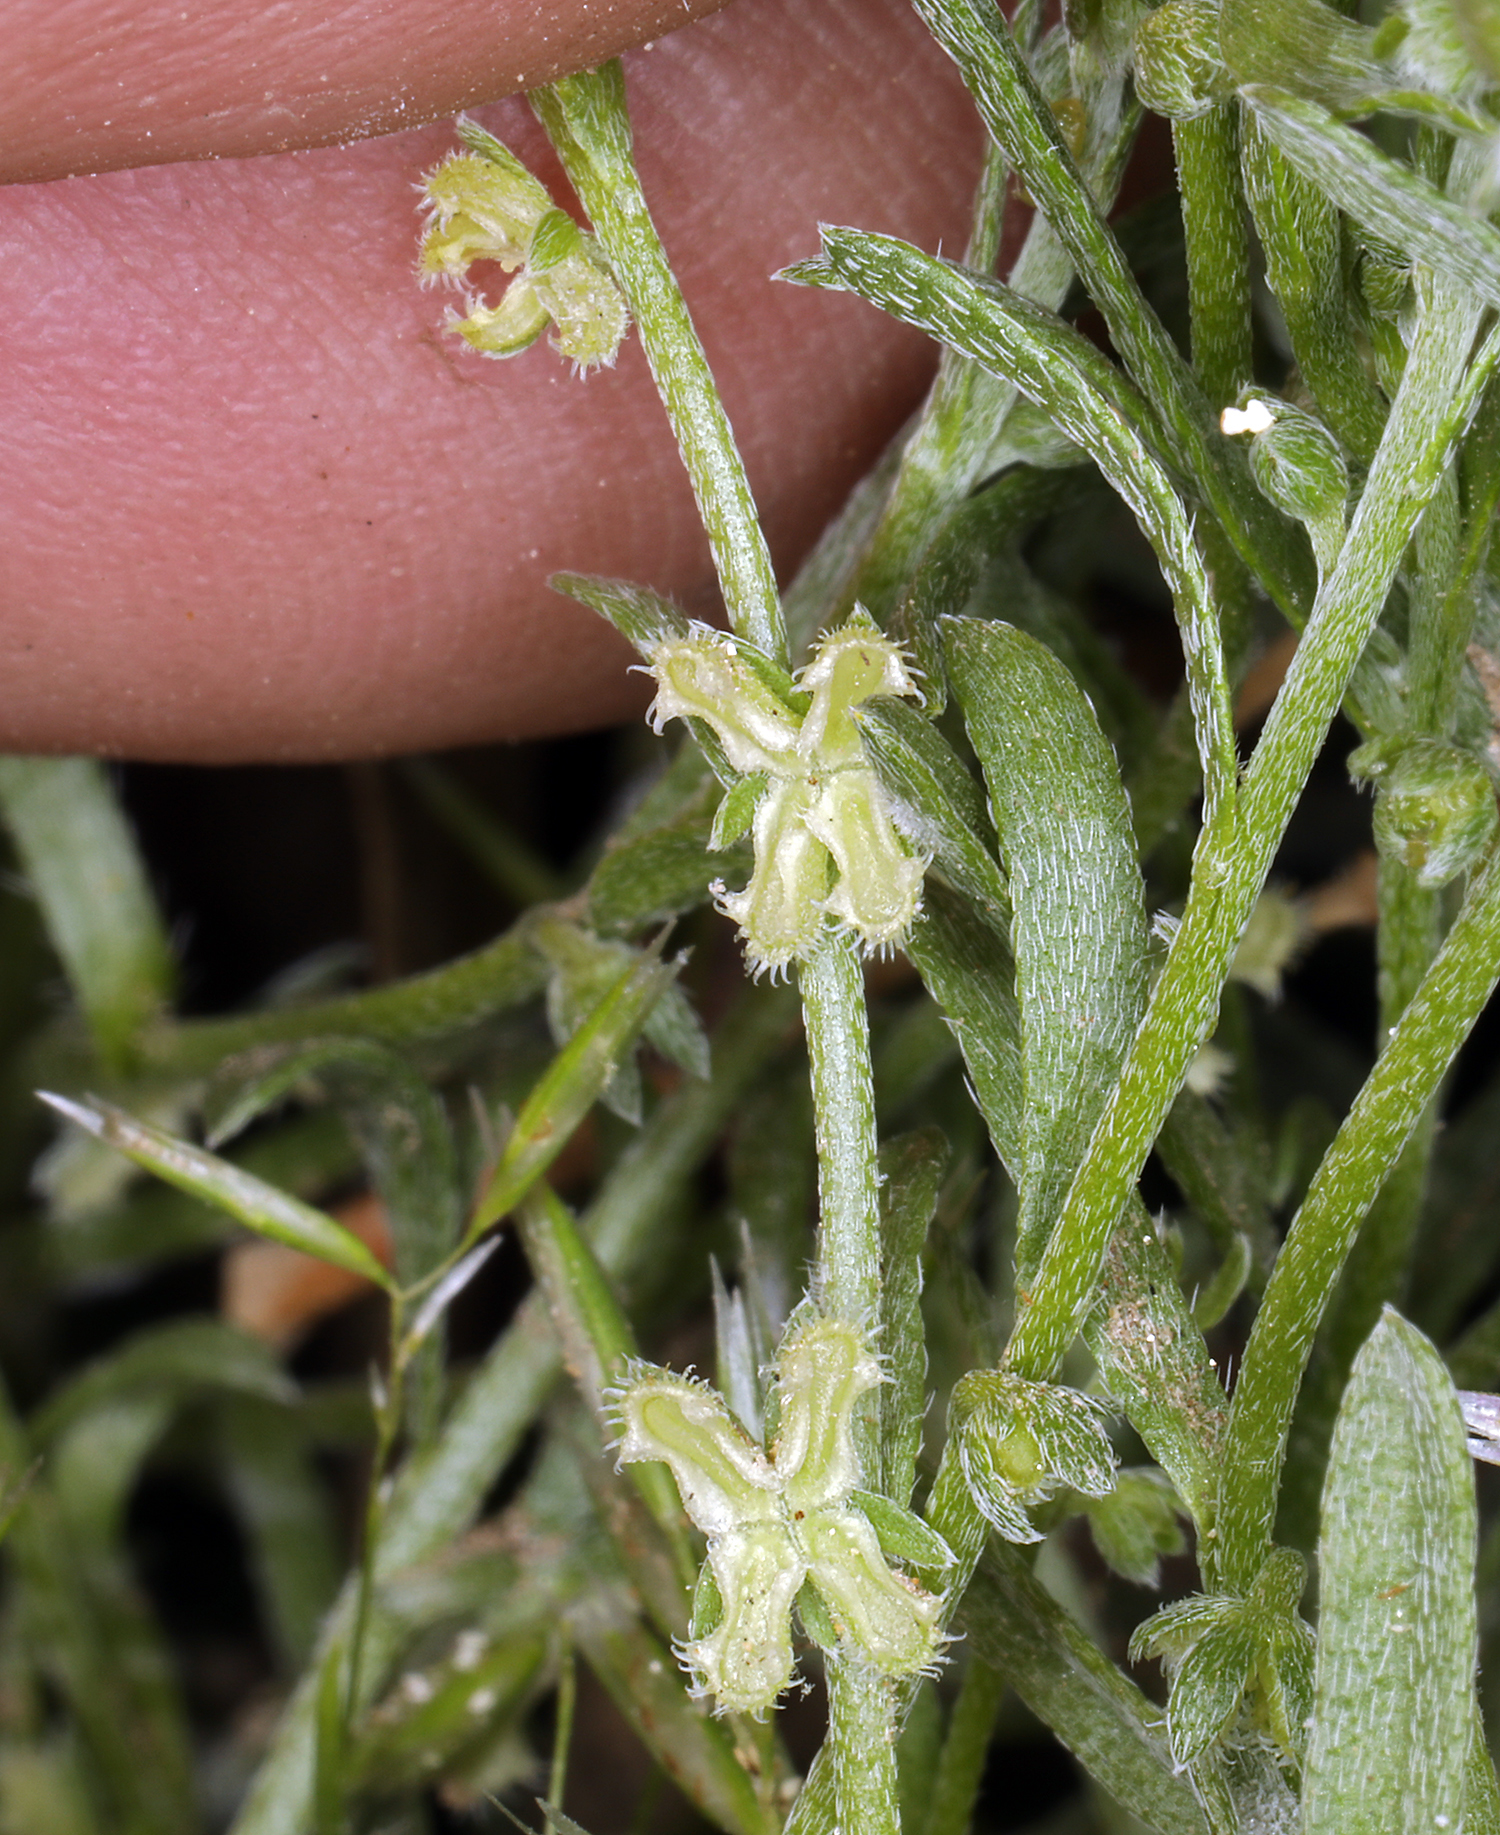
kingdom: Plantae
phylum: Tracheophyta
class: Magnoliopsida
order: Boraginales
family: Boraginaceae
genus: Pectocarya
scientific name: Pectocarya penicillata
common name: Short-leaved combseed
